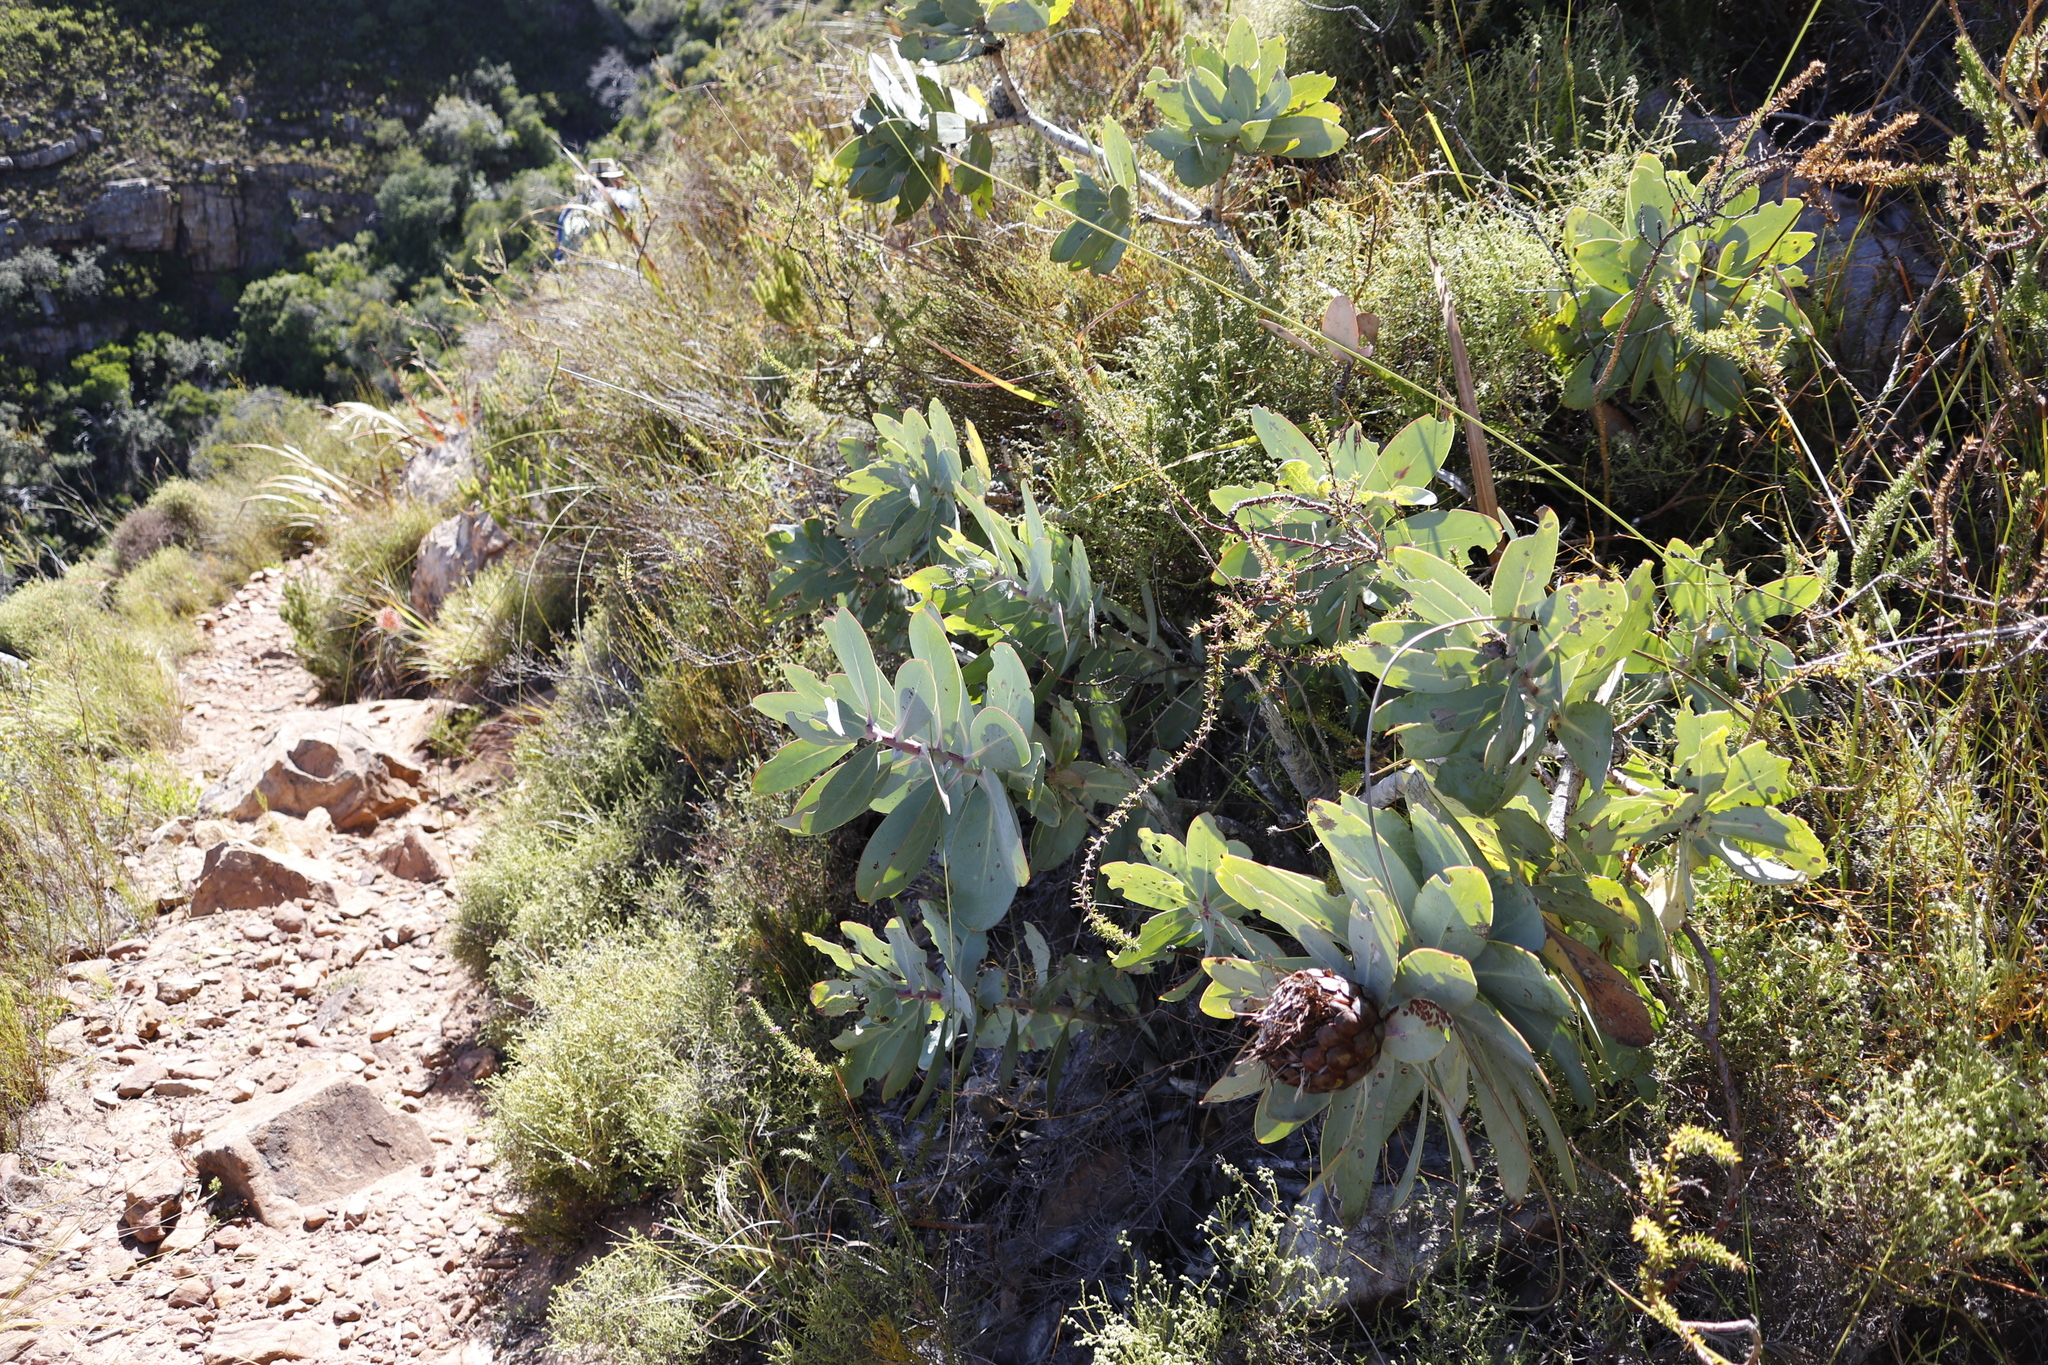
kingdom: Plantae
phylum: Tracheophyta
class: Magnoliopsida
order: Proteales
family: Proteaceae
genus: Protea
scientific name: Protea nitida
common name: Tree protea
